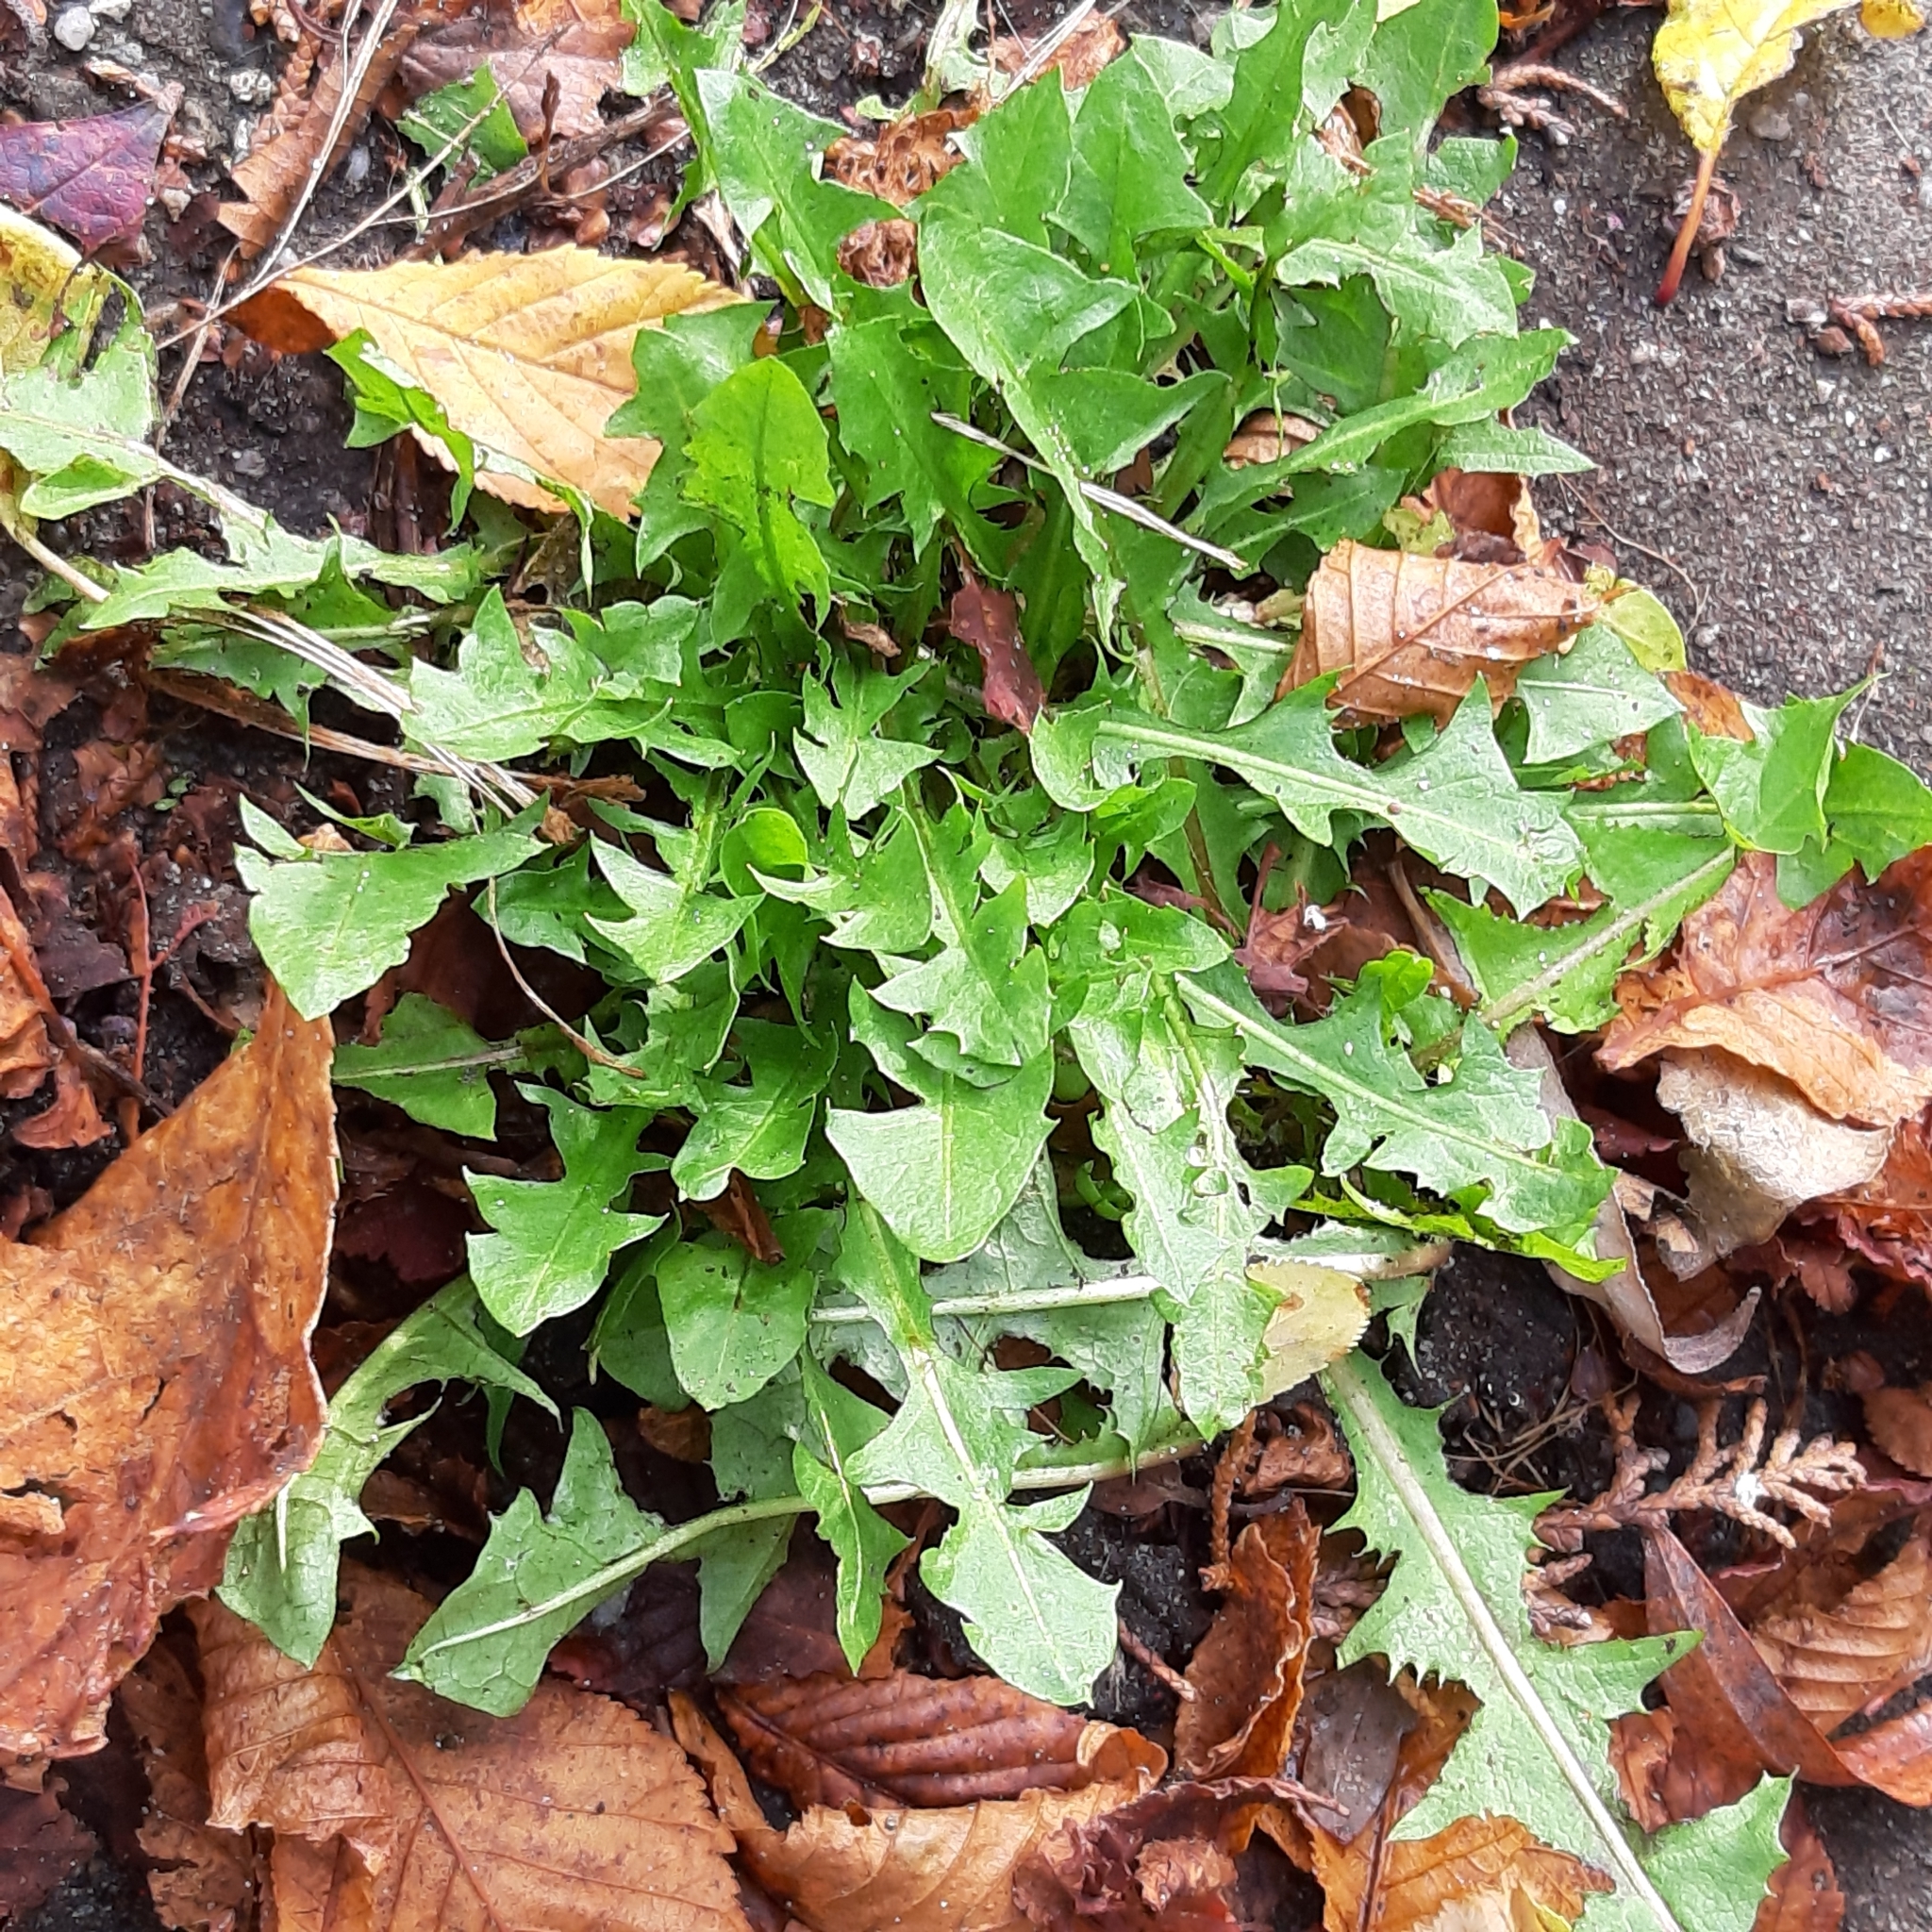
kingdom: Plantae
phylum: Tracheophyta
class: Magnoliopsida
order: Asterales
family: Asteraceae
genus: Taraxacum
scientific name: Taraxacum officinale
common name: Common dandelion
